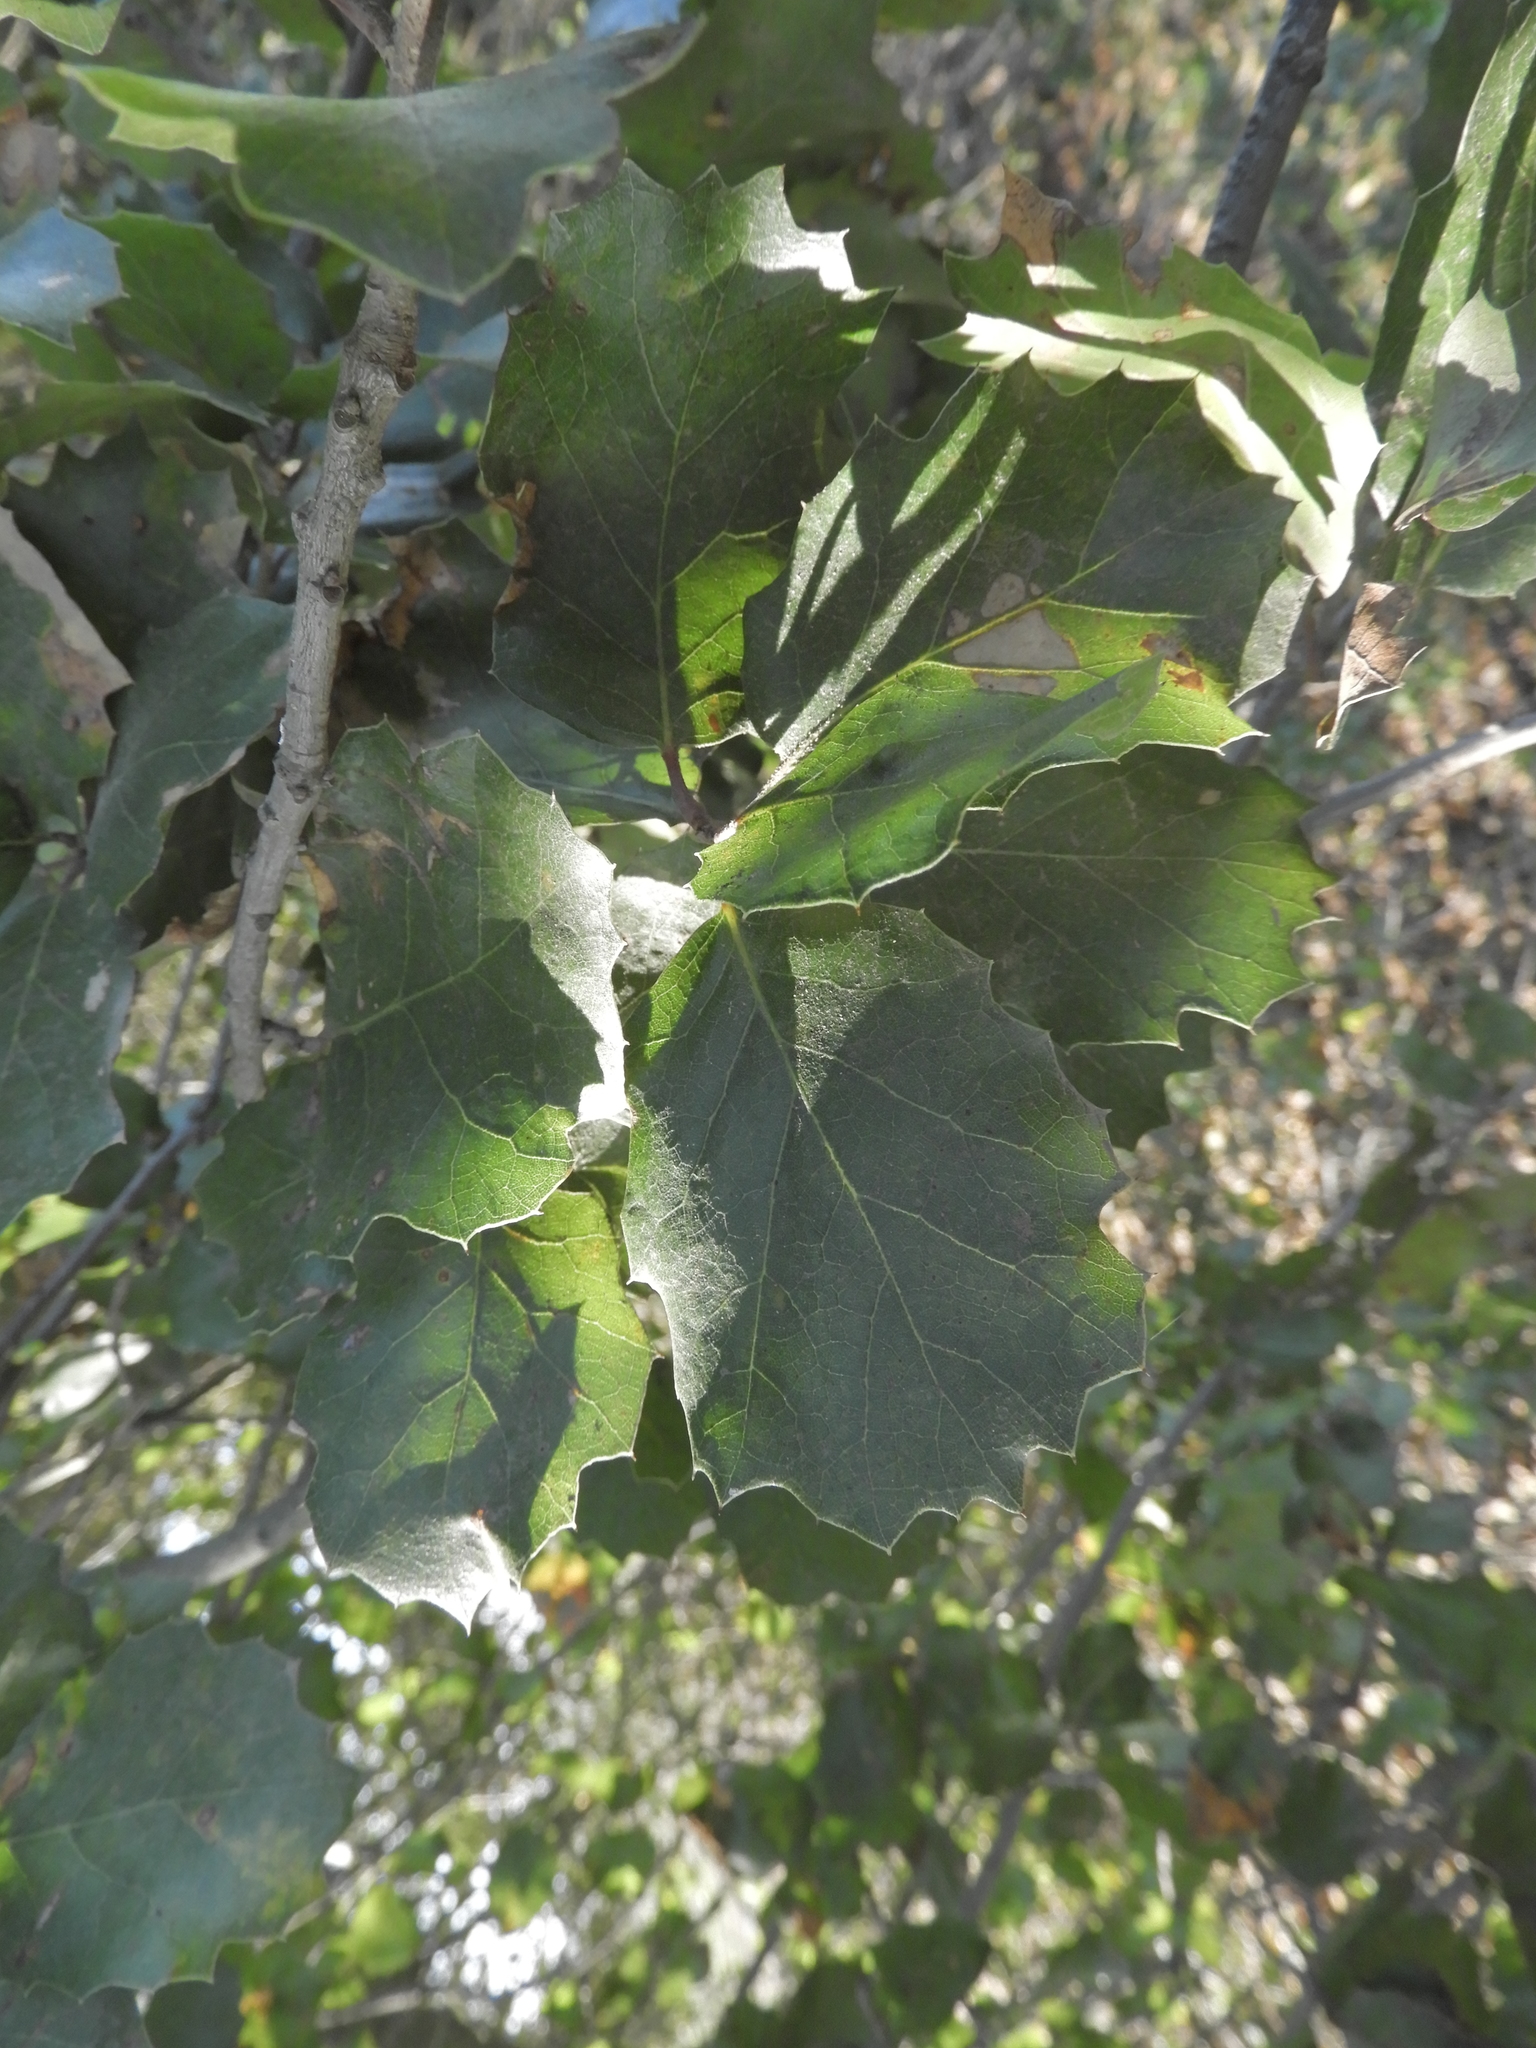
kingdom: Plantae
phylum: Tracheophyta
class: Magnoliopsida
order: Fagales
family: Fagaceae
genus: Quercus
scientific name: Quercus
